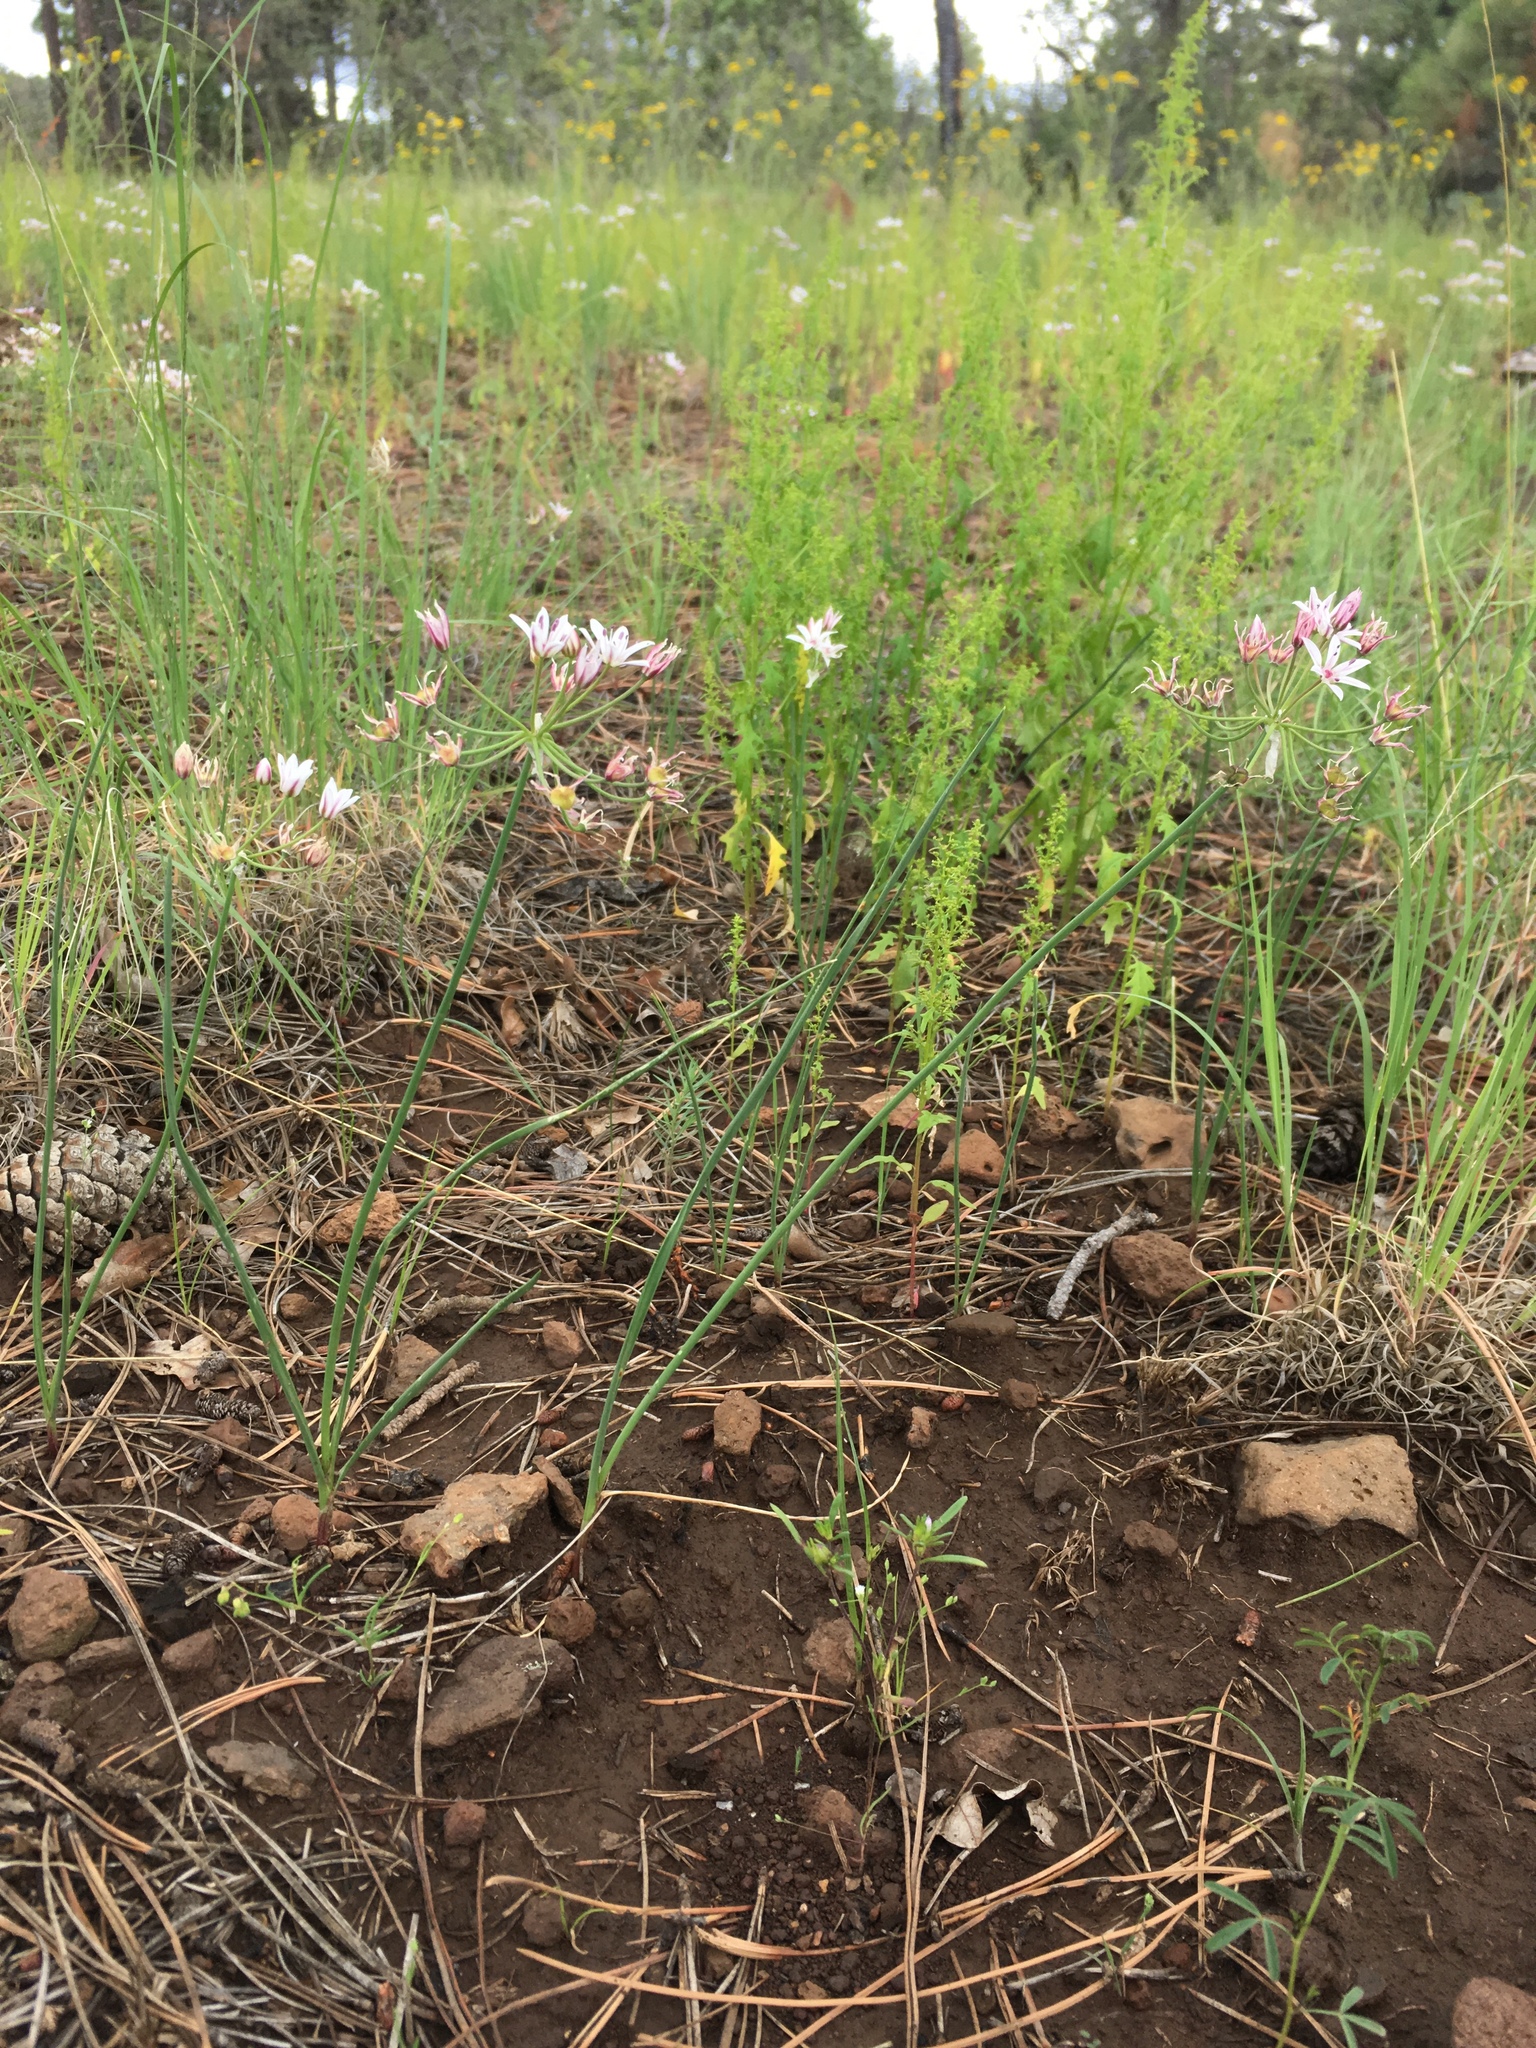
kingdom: Plantae
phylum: Tracheophyta
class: Liliopsida
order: Asparagales
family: Amaryllidaceae
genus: Allium
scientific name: Allium rhizomatum
